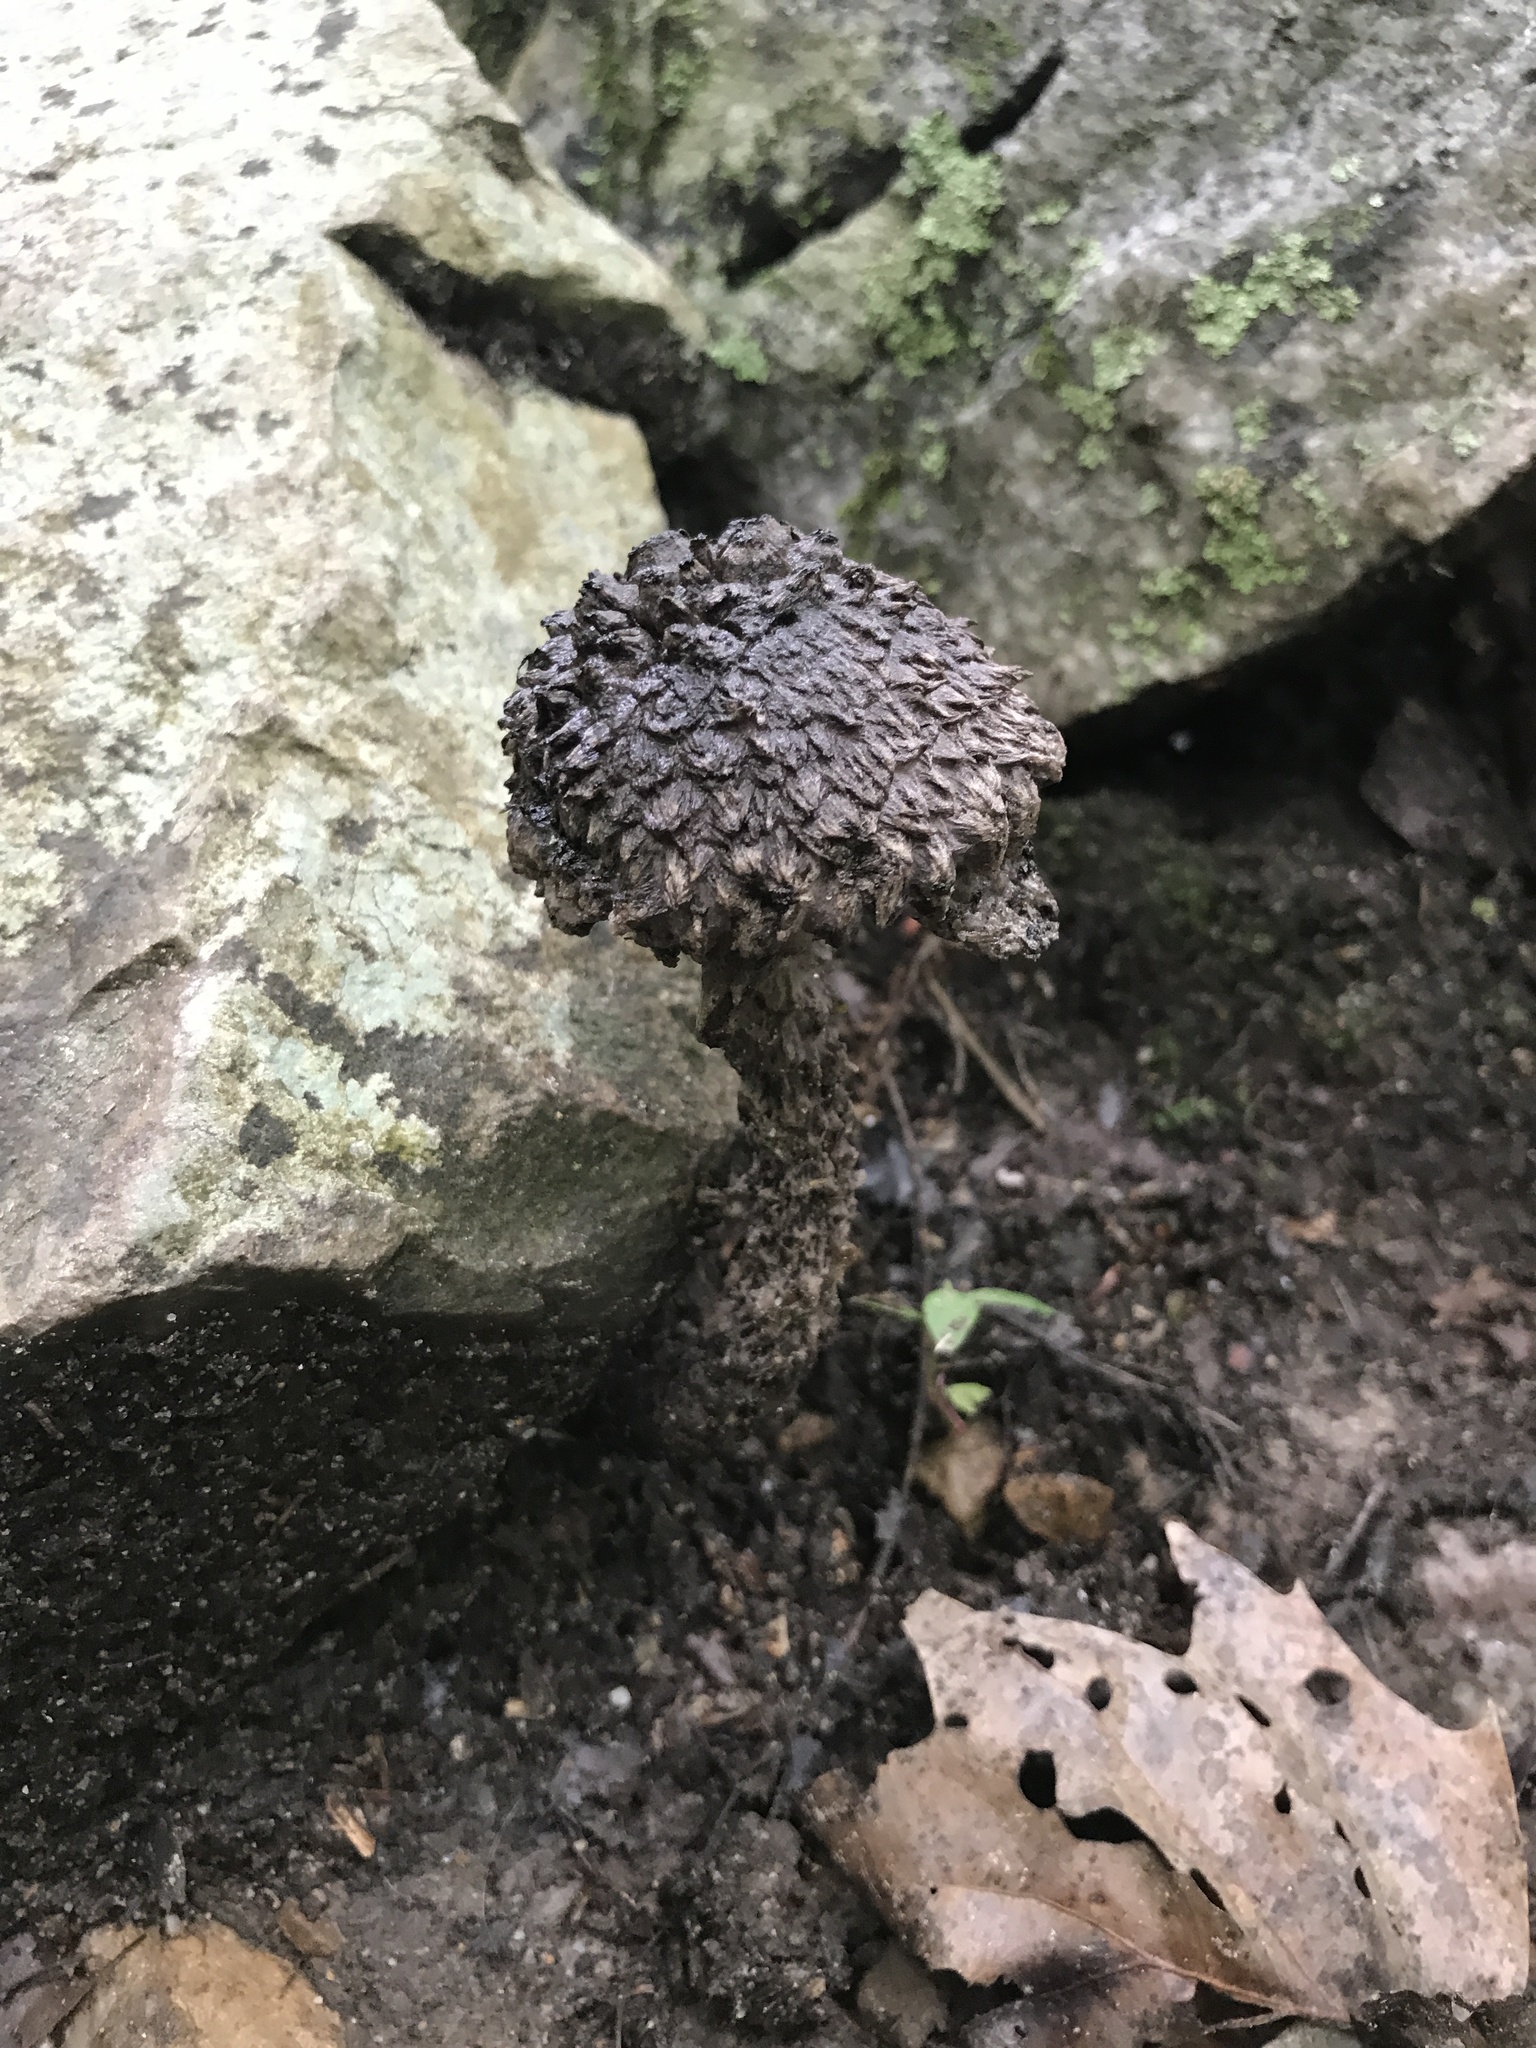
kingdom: Fungi
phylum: Basidiomycota
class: Agaricomycetes
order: Boletales
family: Boletaceae
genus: Strobilomyces
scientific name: Strobilomyces strobilaceus
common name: Old man of the woods
